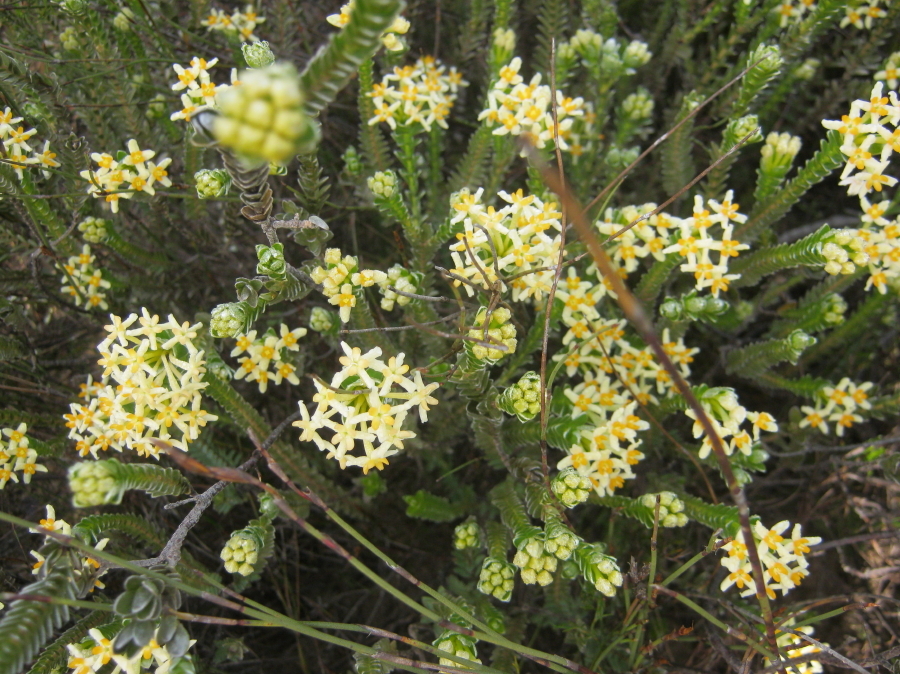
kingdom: Plantae
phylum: Tracheophyta
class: Magnoliopsida
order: Malvales
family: Thymelaeaceae
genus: Gnidia
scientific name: Gnidia chrysophylla
